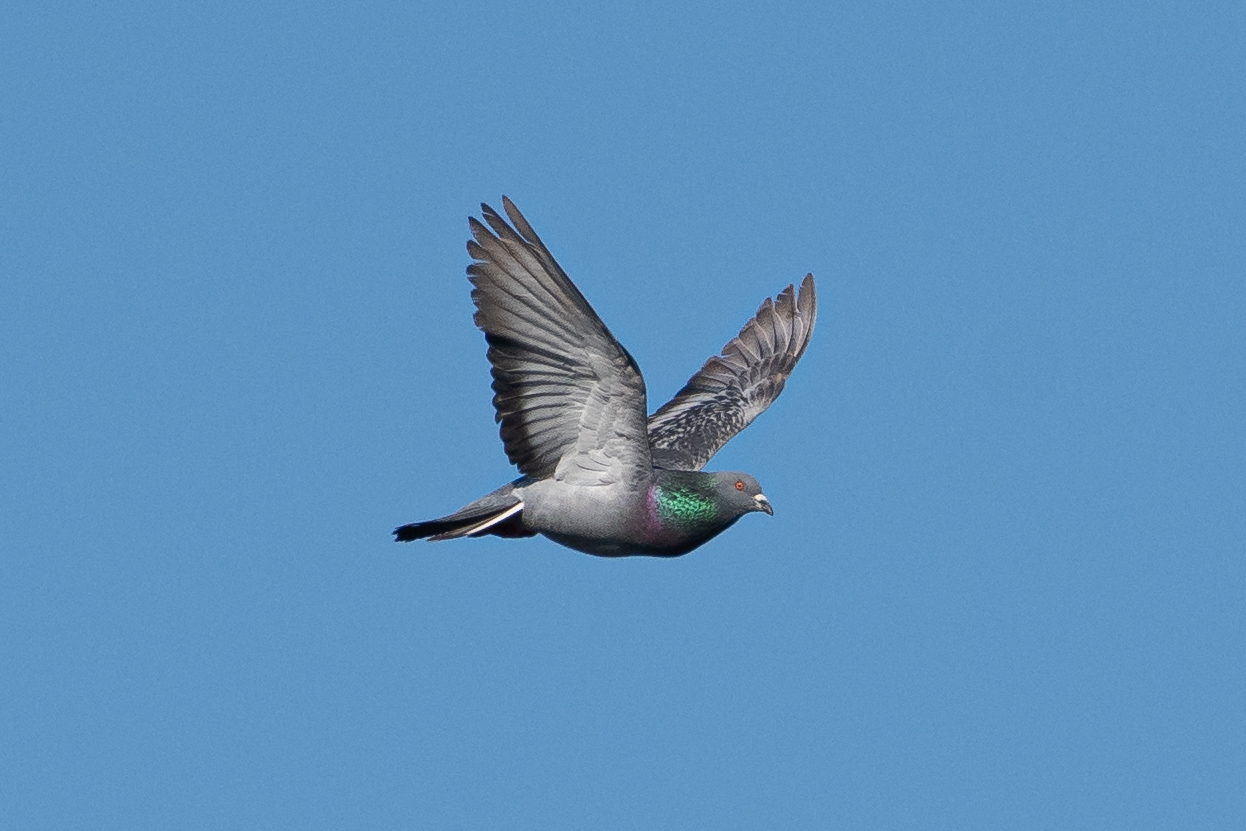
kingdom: Animalia
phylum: Chordata
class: Aves
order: Columbiformes
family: Columbidae
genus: Columba
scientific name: Columba livia
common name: Rock pigeon
